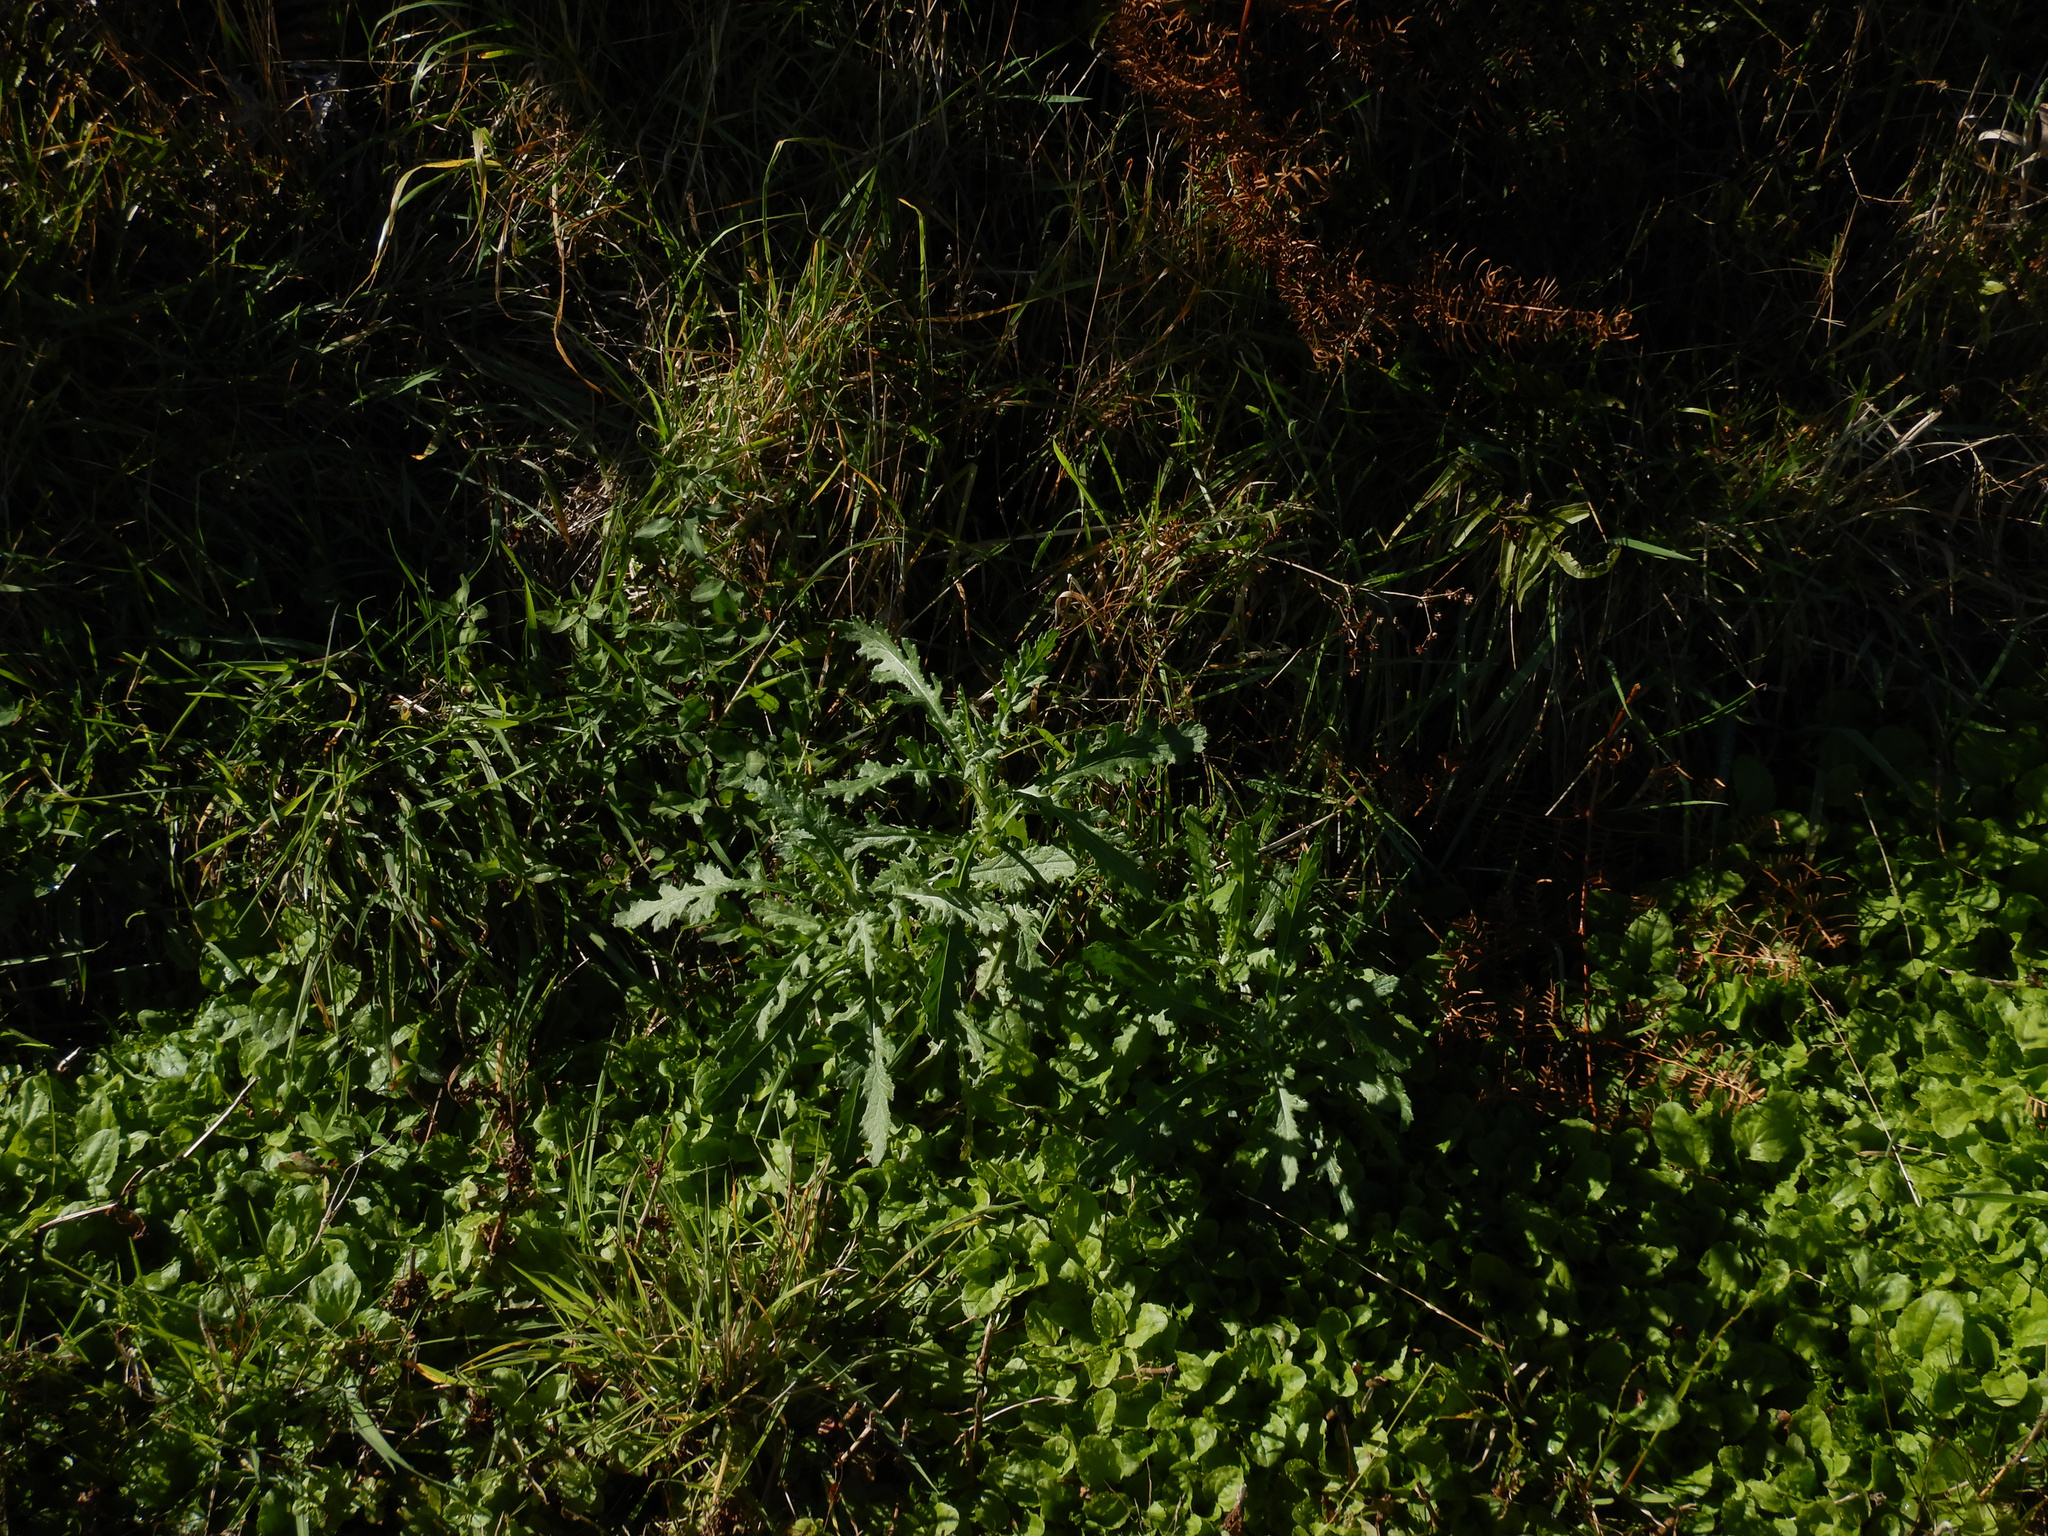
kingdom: Plantae
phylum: Tracheophyta
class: Magnoliopsida
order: Asterales
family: Asteraceae
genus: Senecio
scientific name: Senecio glomeratus
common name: Cutleaf burnweed
